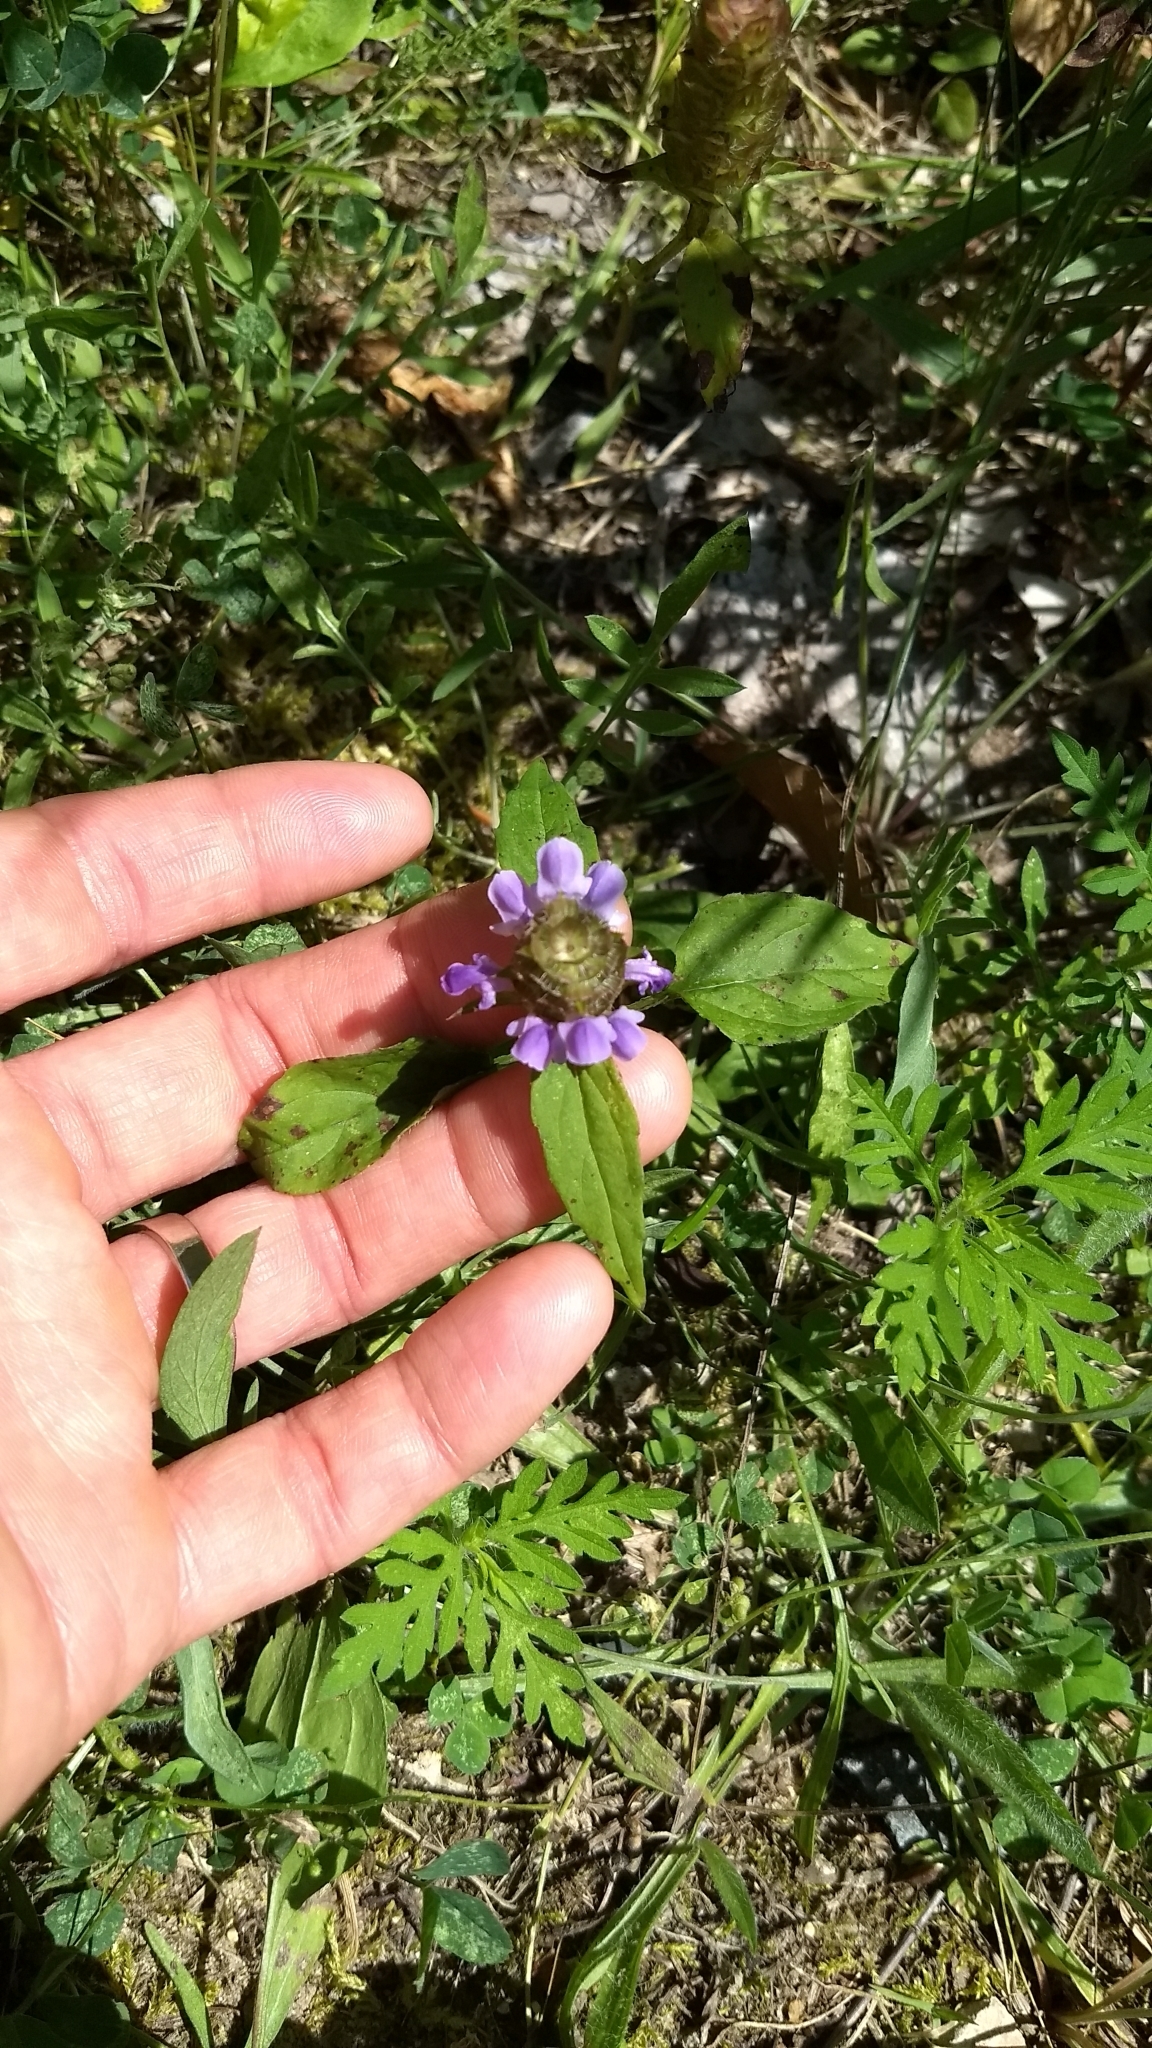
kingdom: Plantae
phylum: Tracheophyta
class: Magnoliopsida
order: Lamiales
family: Lamiaceae
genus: Prunella
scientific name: Prunella vulgaris
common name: Heal-all
